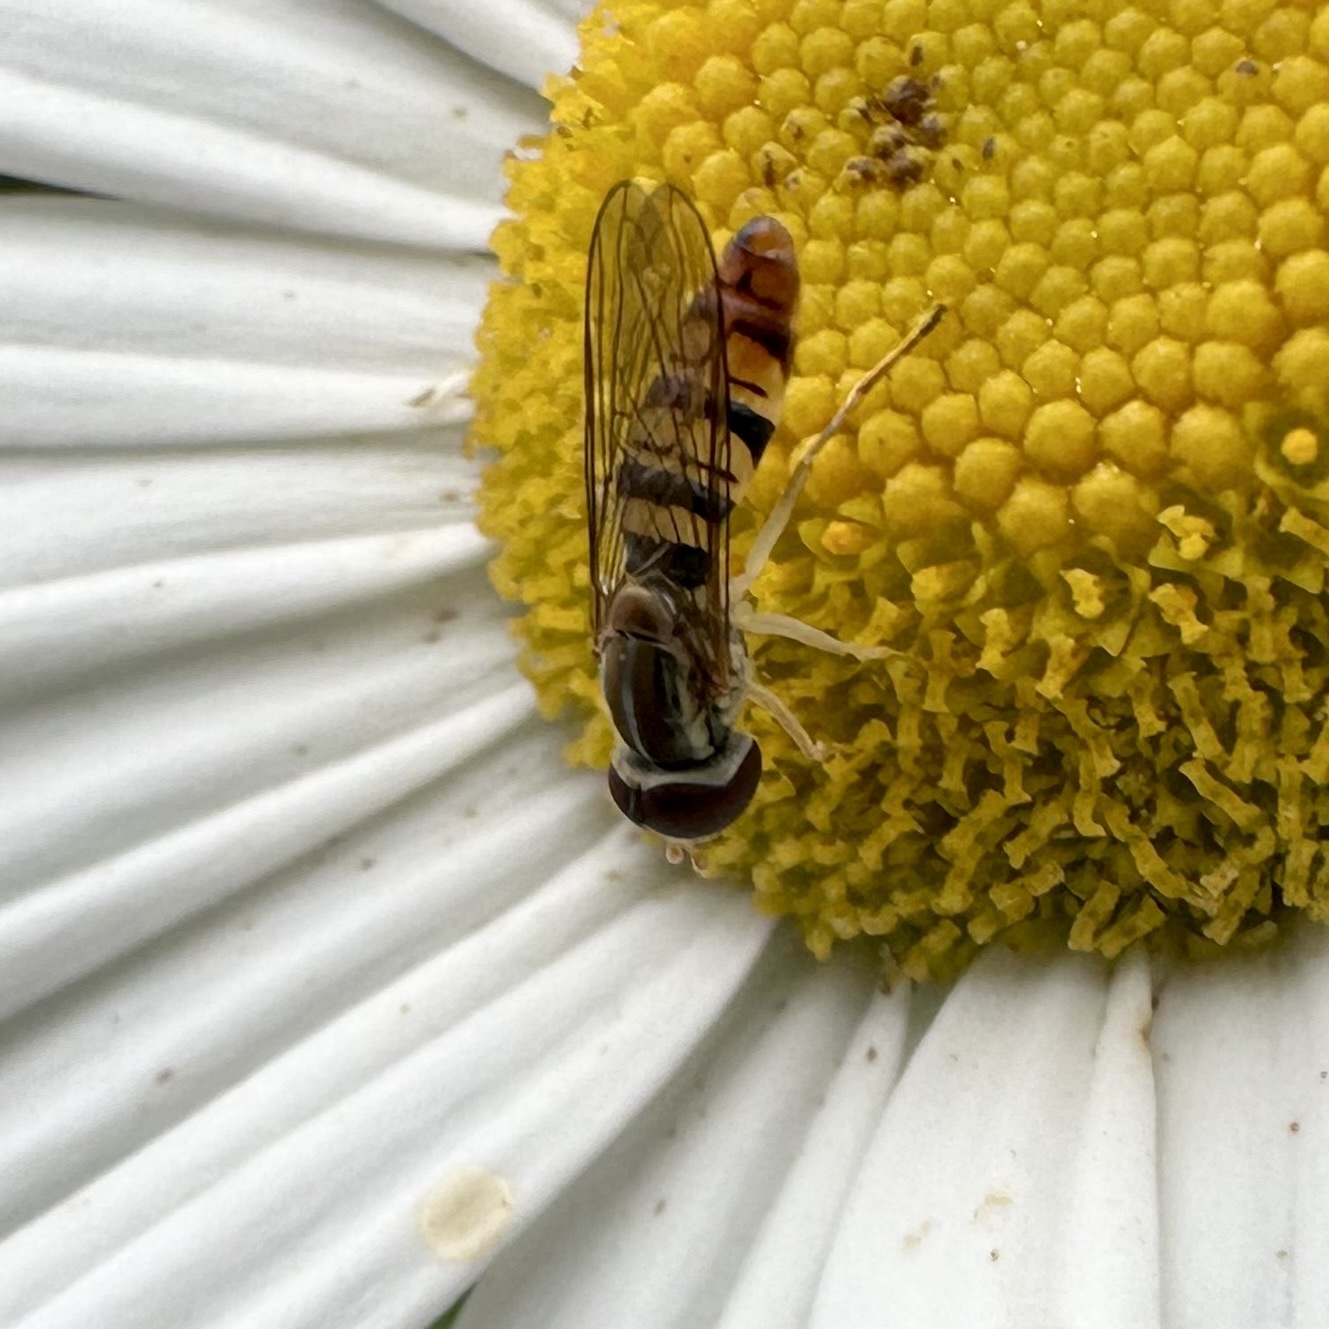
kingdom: Animalia
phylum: Arthropoda
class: Insecta
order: Diptera
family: Syrphidae
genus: Toxomerus
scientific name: Toxomerus politus
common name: Maize calligrapher
